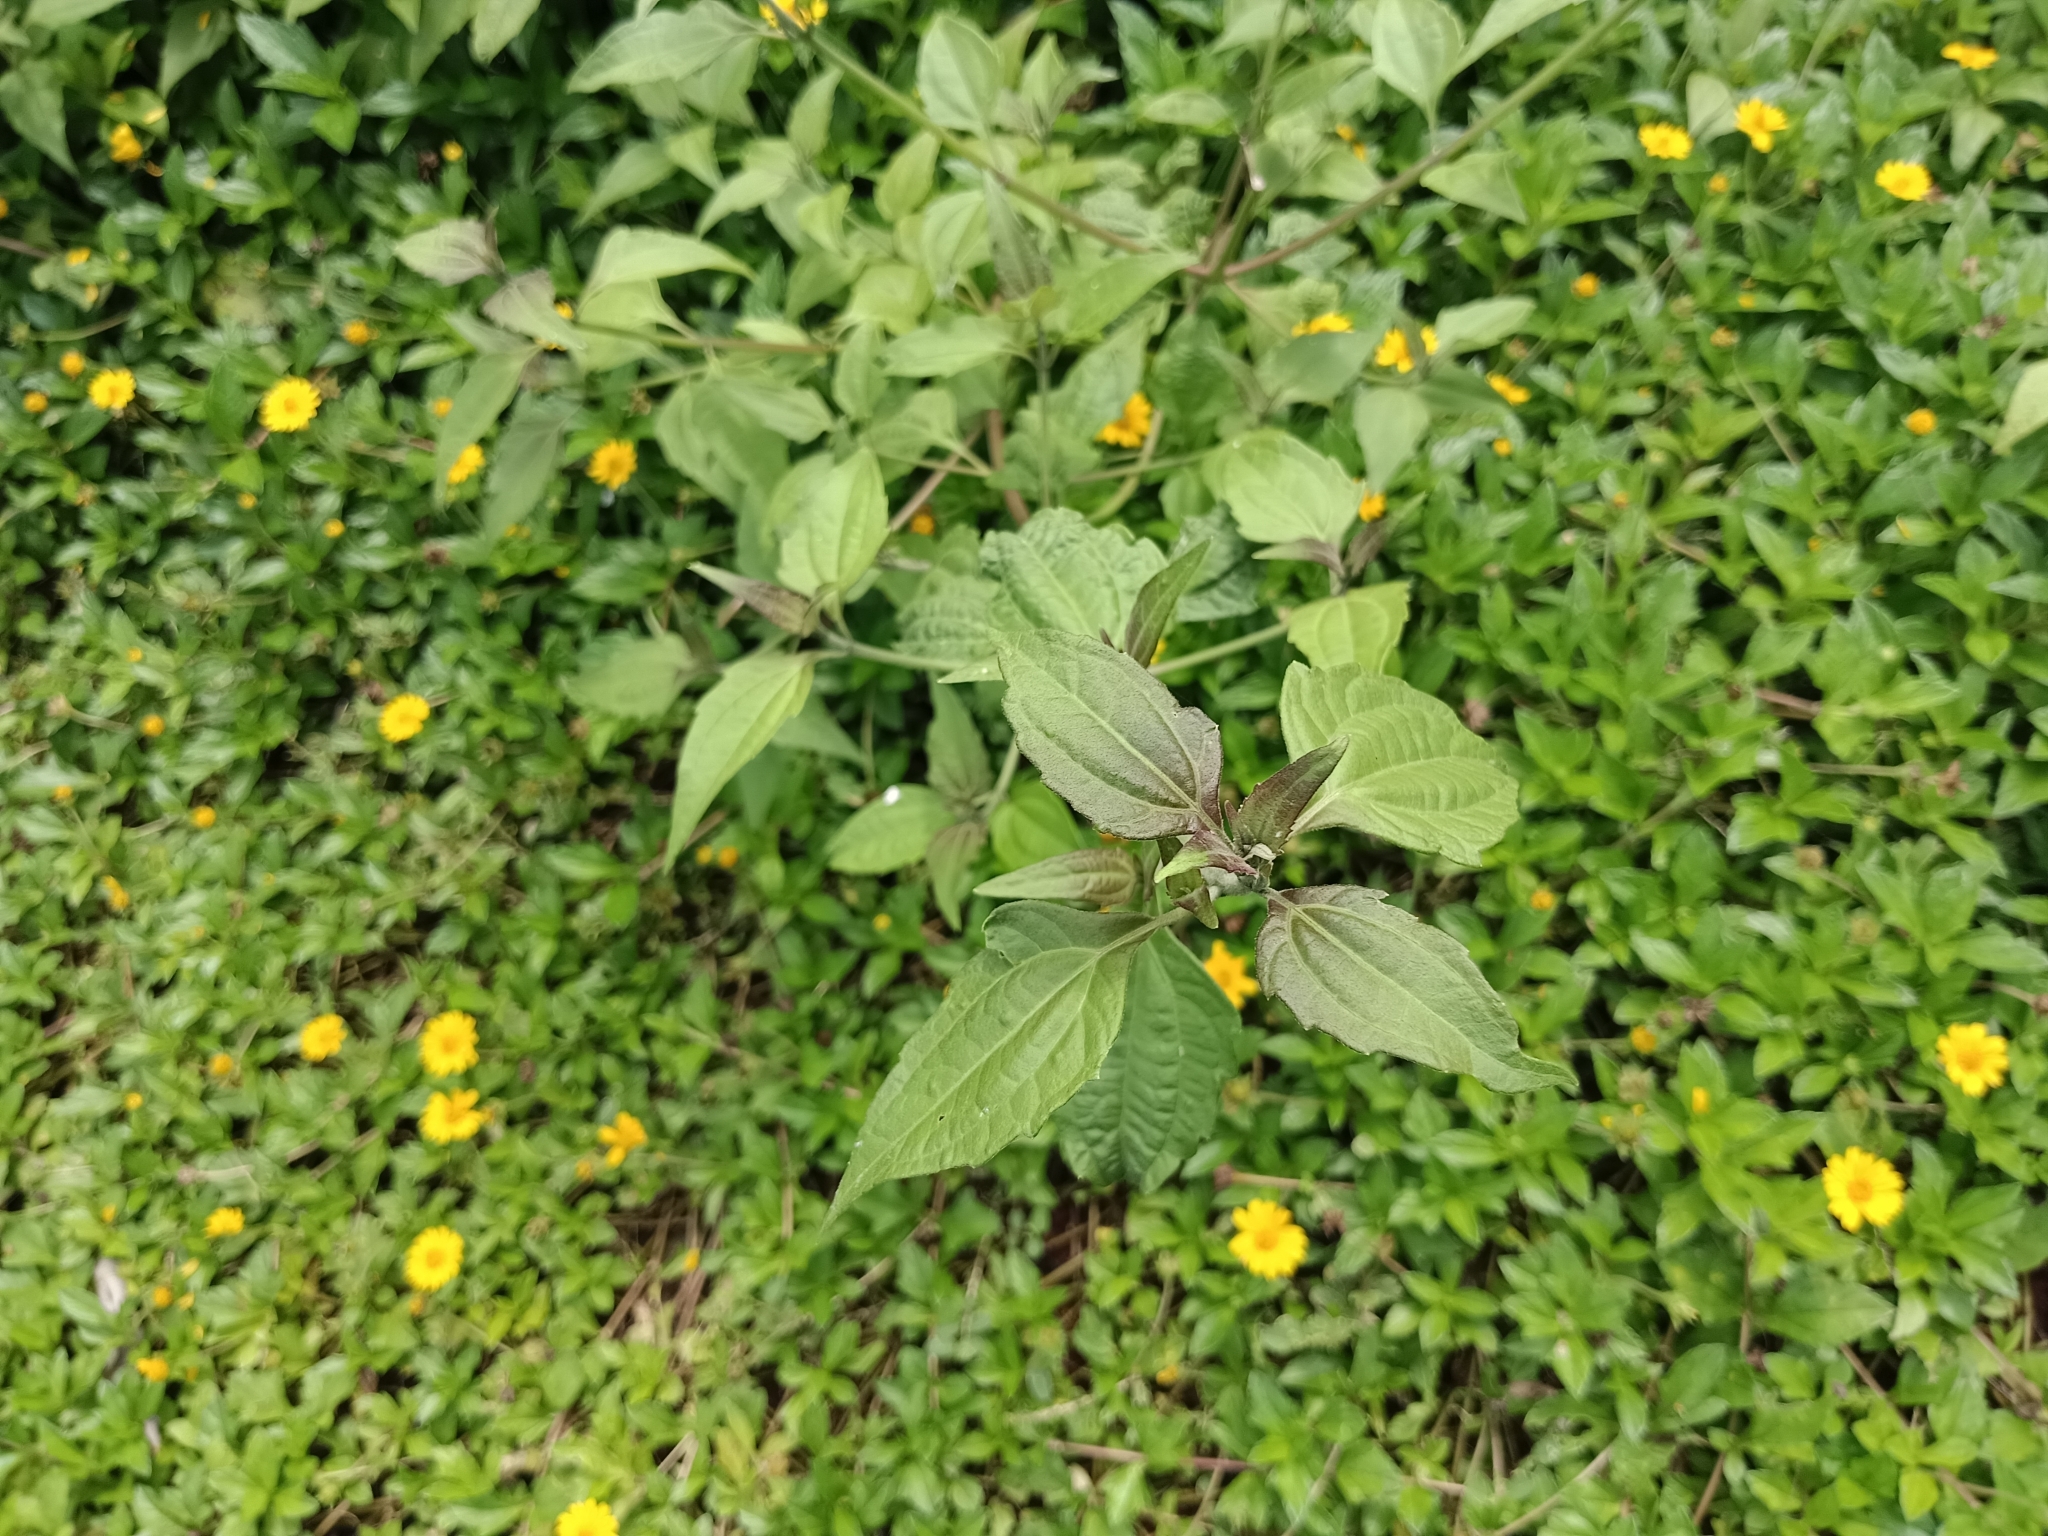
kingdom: Plantae
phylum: Tracheophyta
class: Magnoliopsida
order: Asterales
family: Asteraceae
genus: Chromolaena
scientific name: Chromolaena odorata
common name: Siamweed
